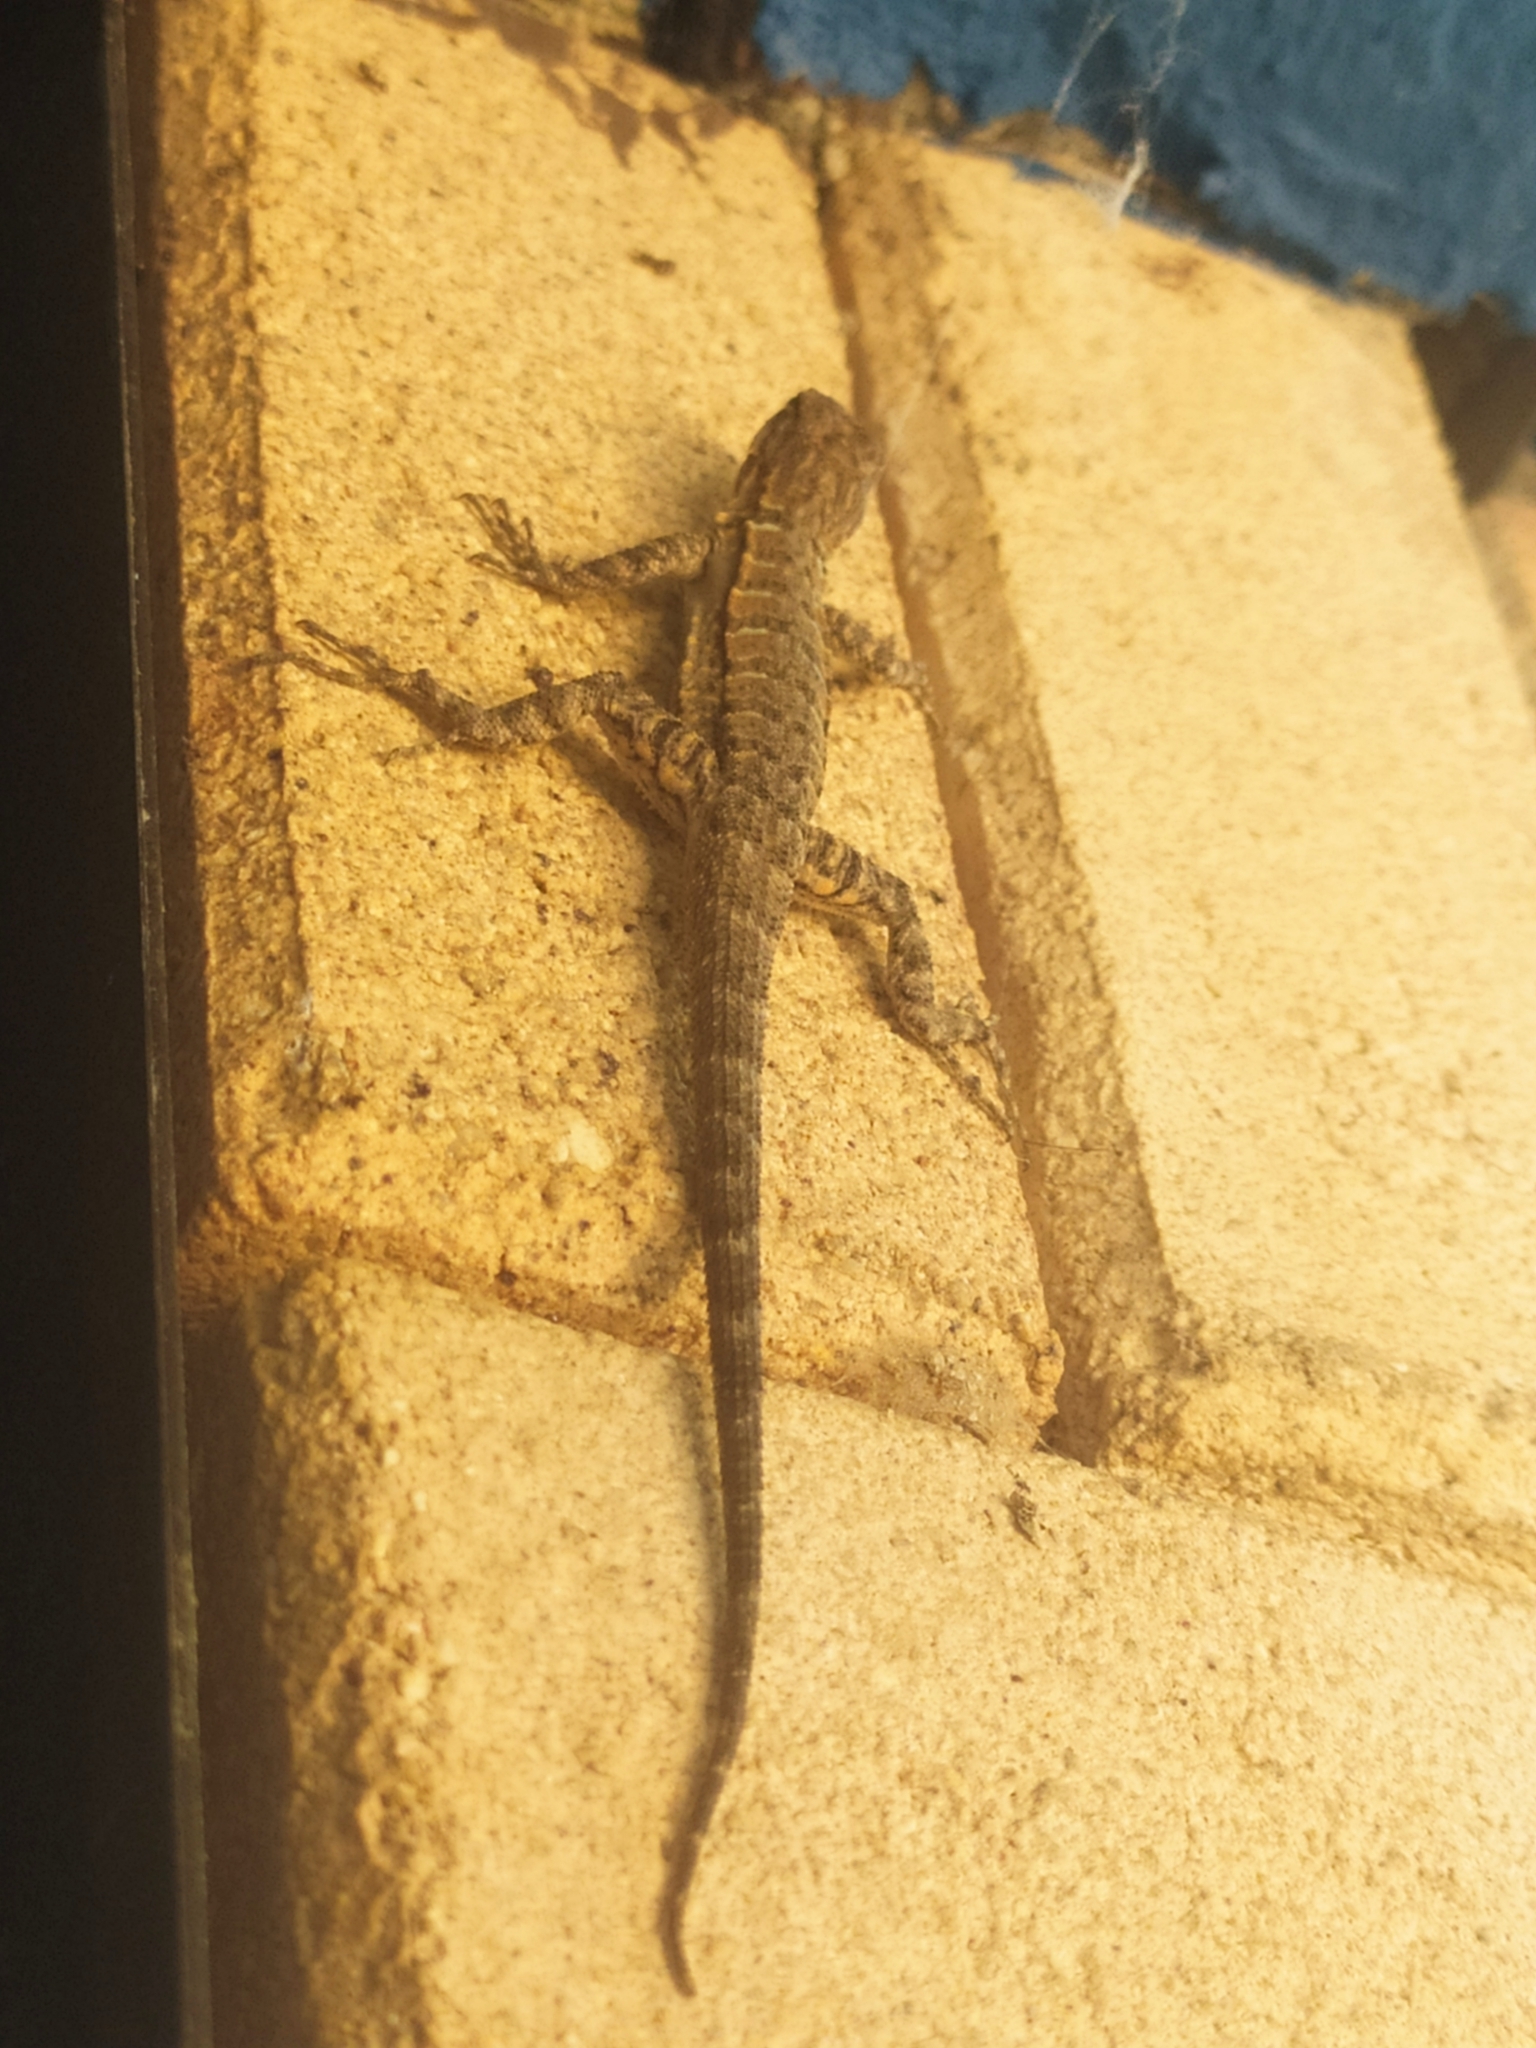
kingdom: Animalia
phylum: Chordata
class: Squamata
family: Phrynosomatidae
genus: Urosaurus
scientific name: Urosaurus nigricauda
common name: Baja california brush lizard
